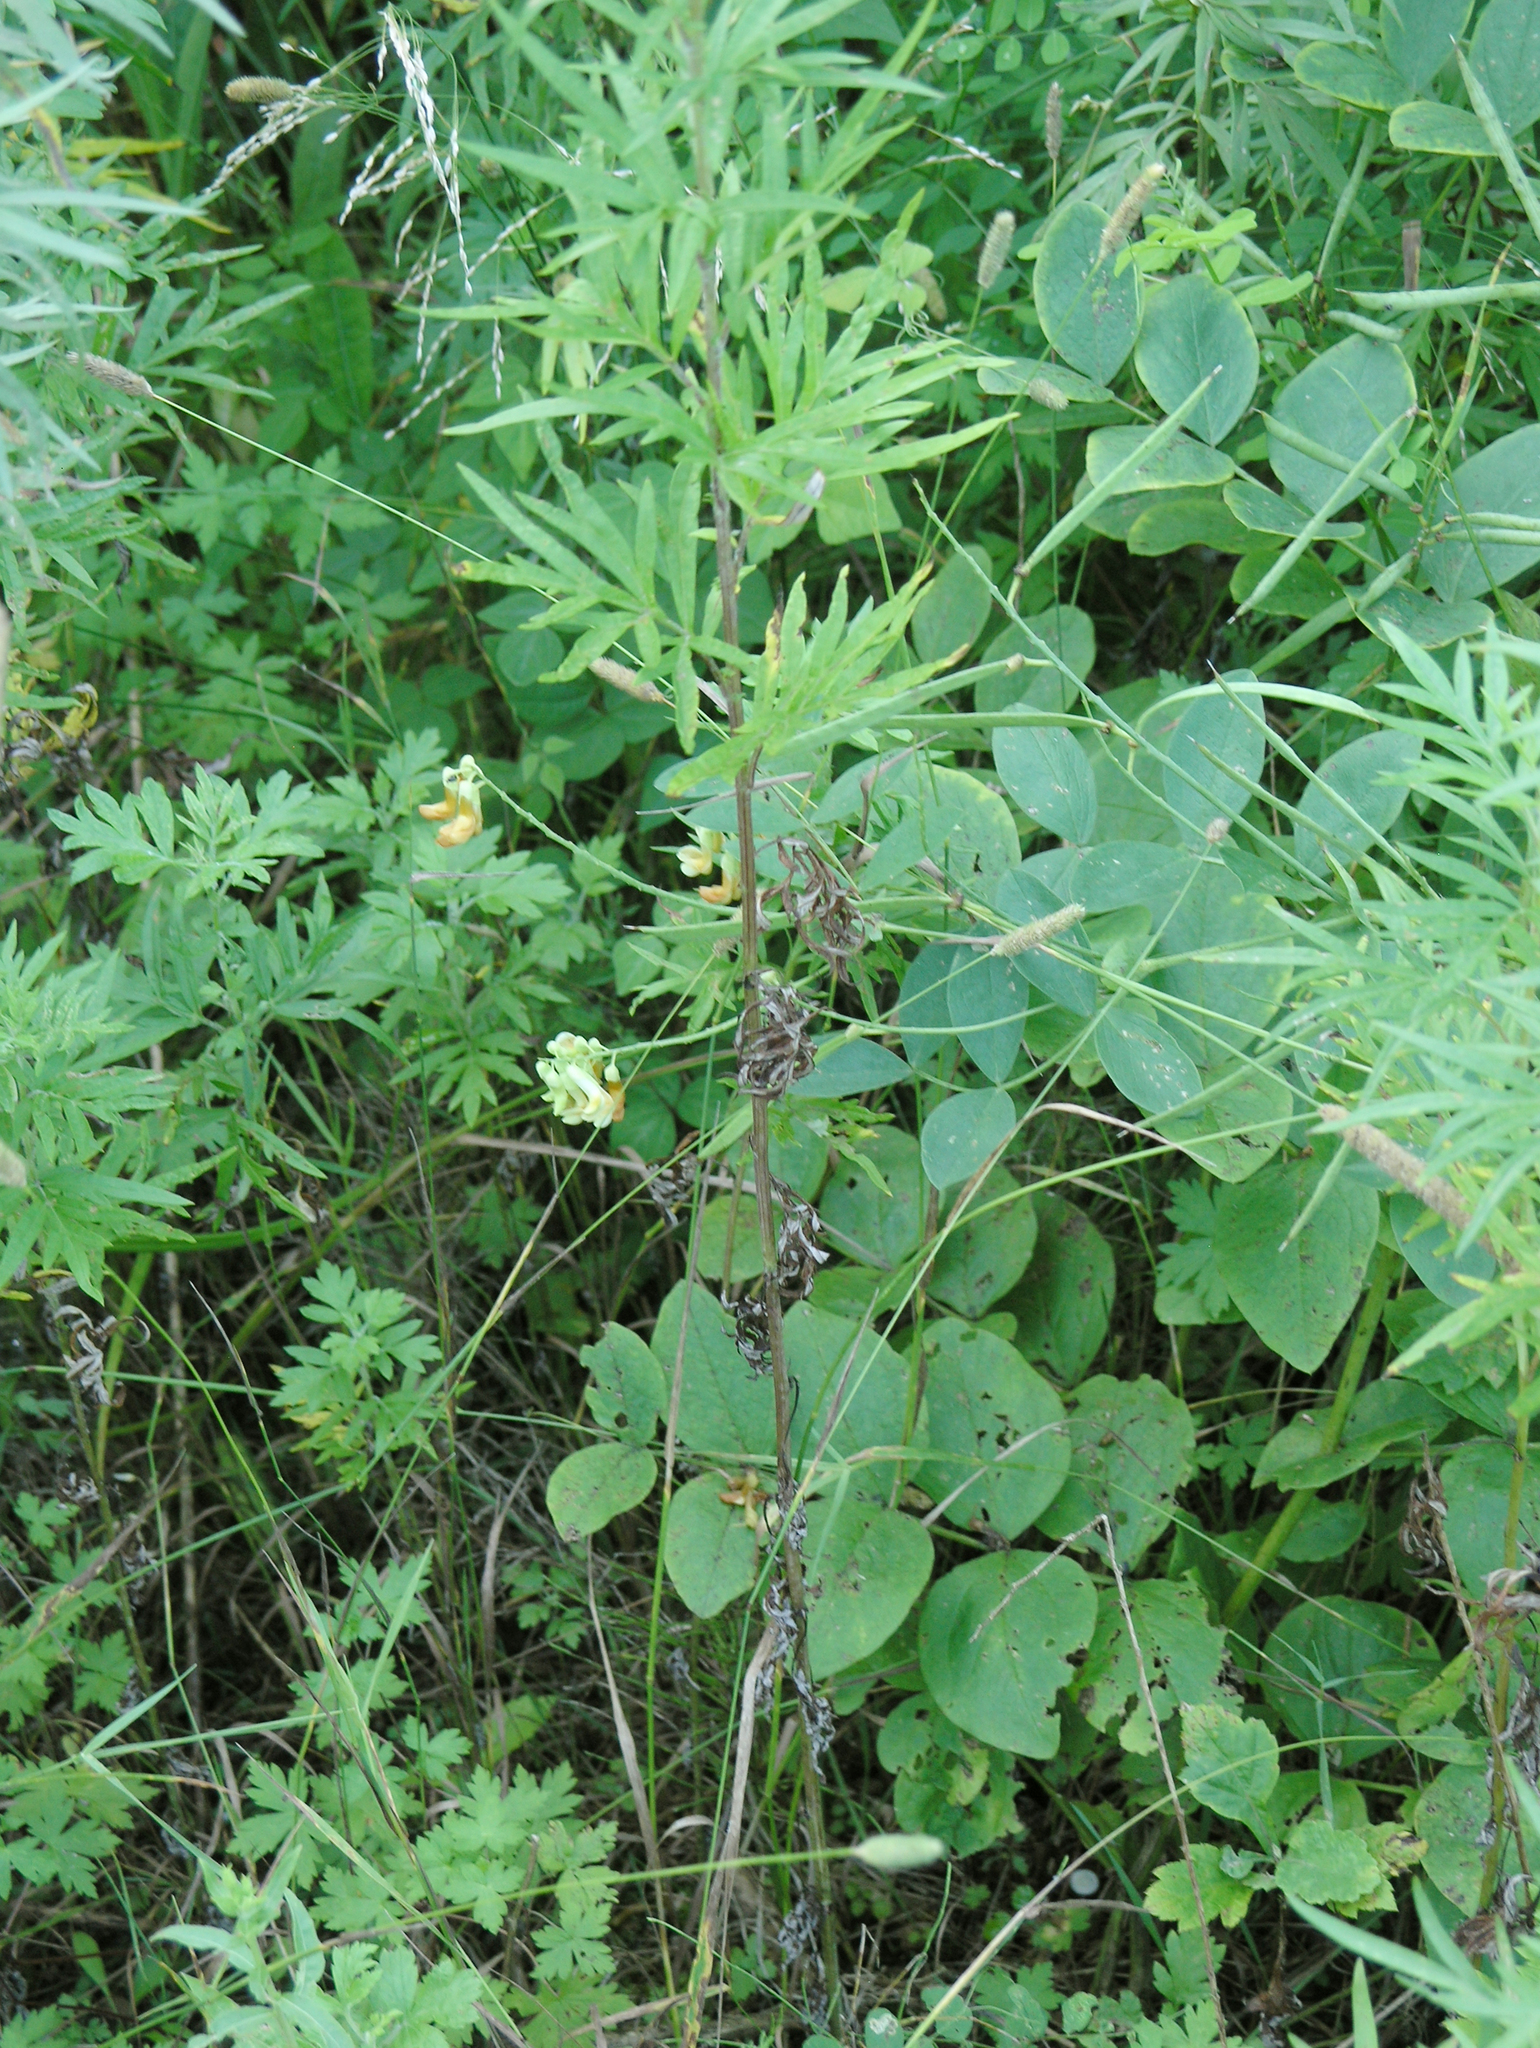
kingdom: Plantae
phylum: Tracheophyta
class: Magnoliopsida
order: Fabales
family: Fabaceae
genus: Lathyrus
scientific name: Lathyrus davidii
